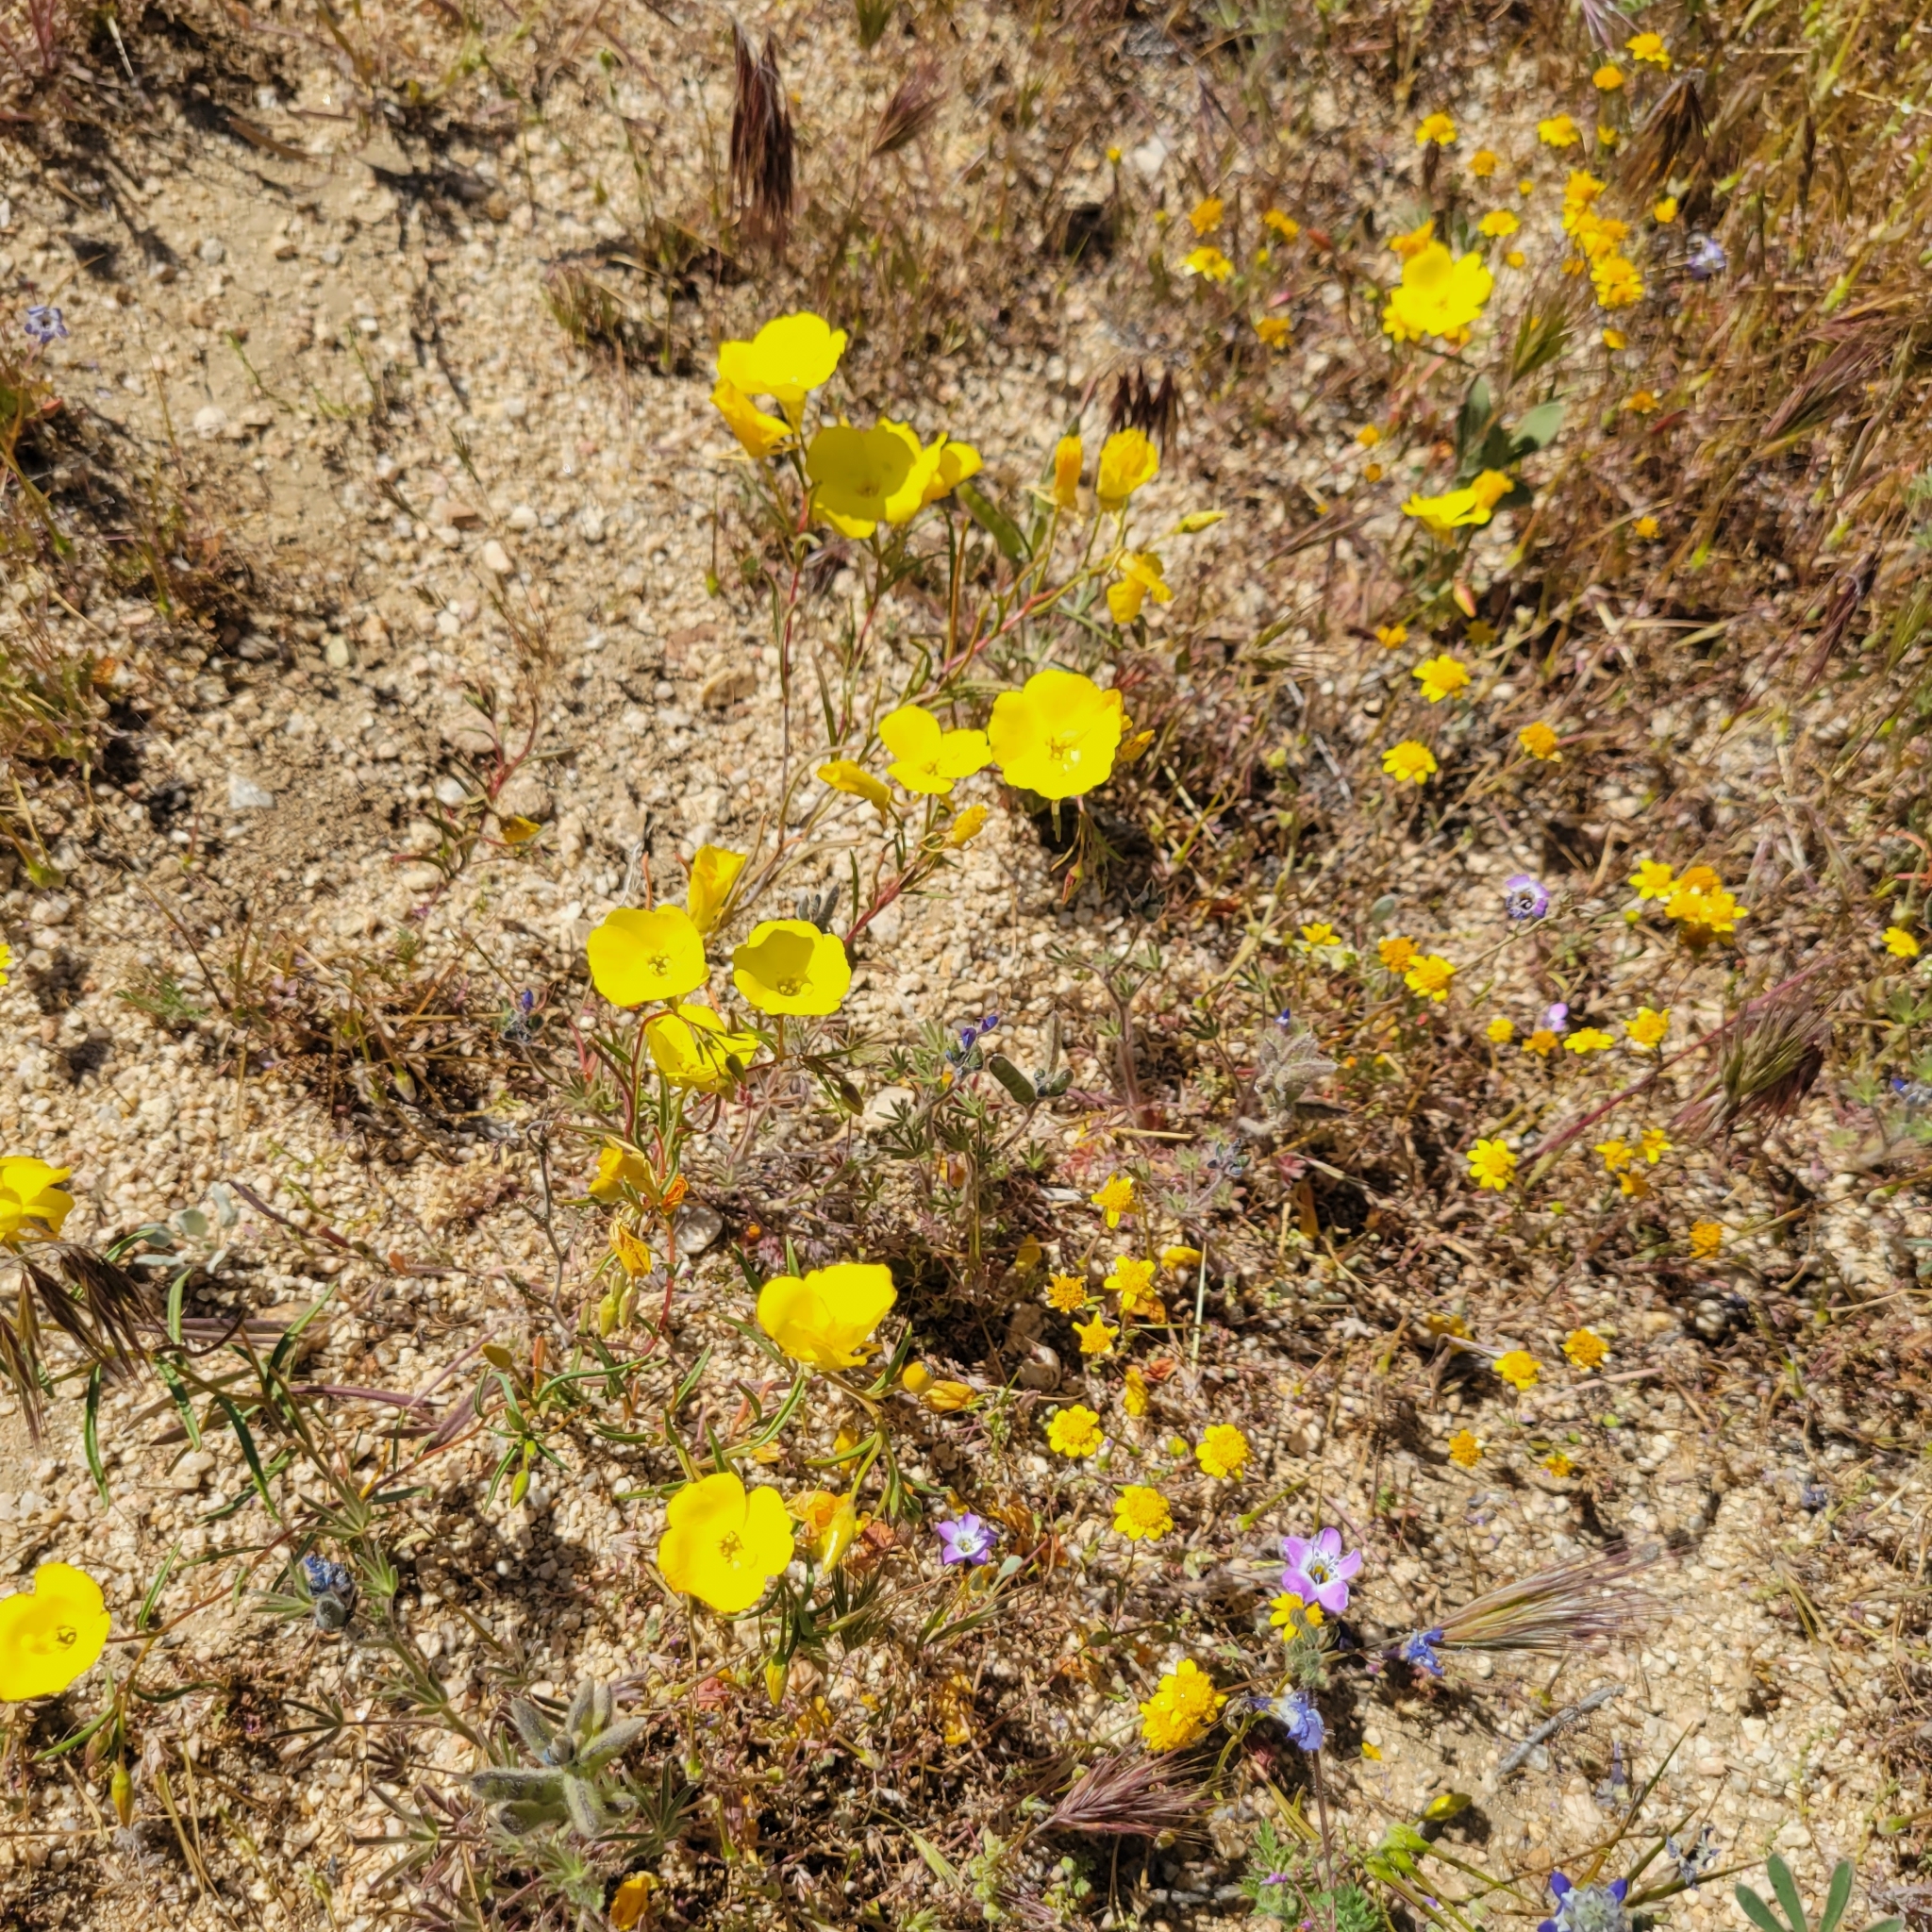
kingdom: Plantae
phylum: Tracheophyta
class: Magnoliopsida
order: Myrtales
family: Onagraceae
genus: Camissonia
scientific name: Camissonia campestris
